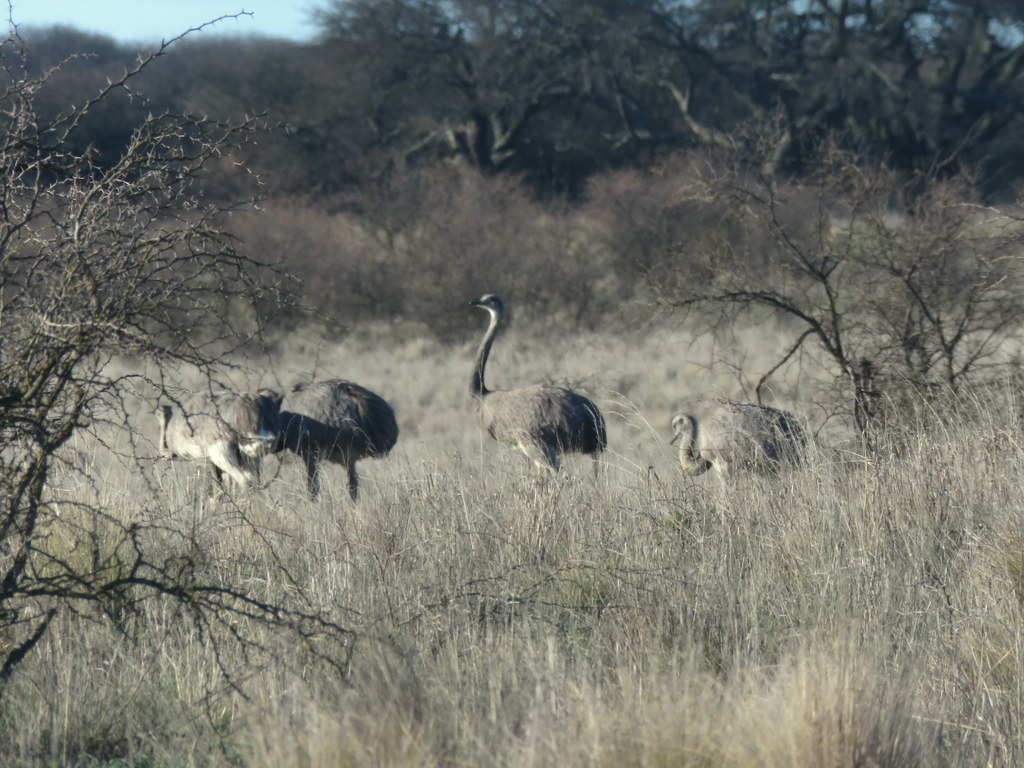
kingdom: Animalia
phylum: Chordata
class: Aves
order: Rheiformes
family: Rheidae
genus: Rhea
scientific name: Rhea americana
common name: Greater rhea
